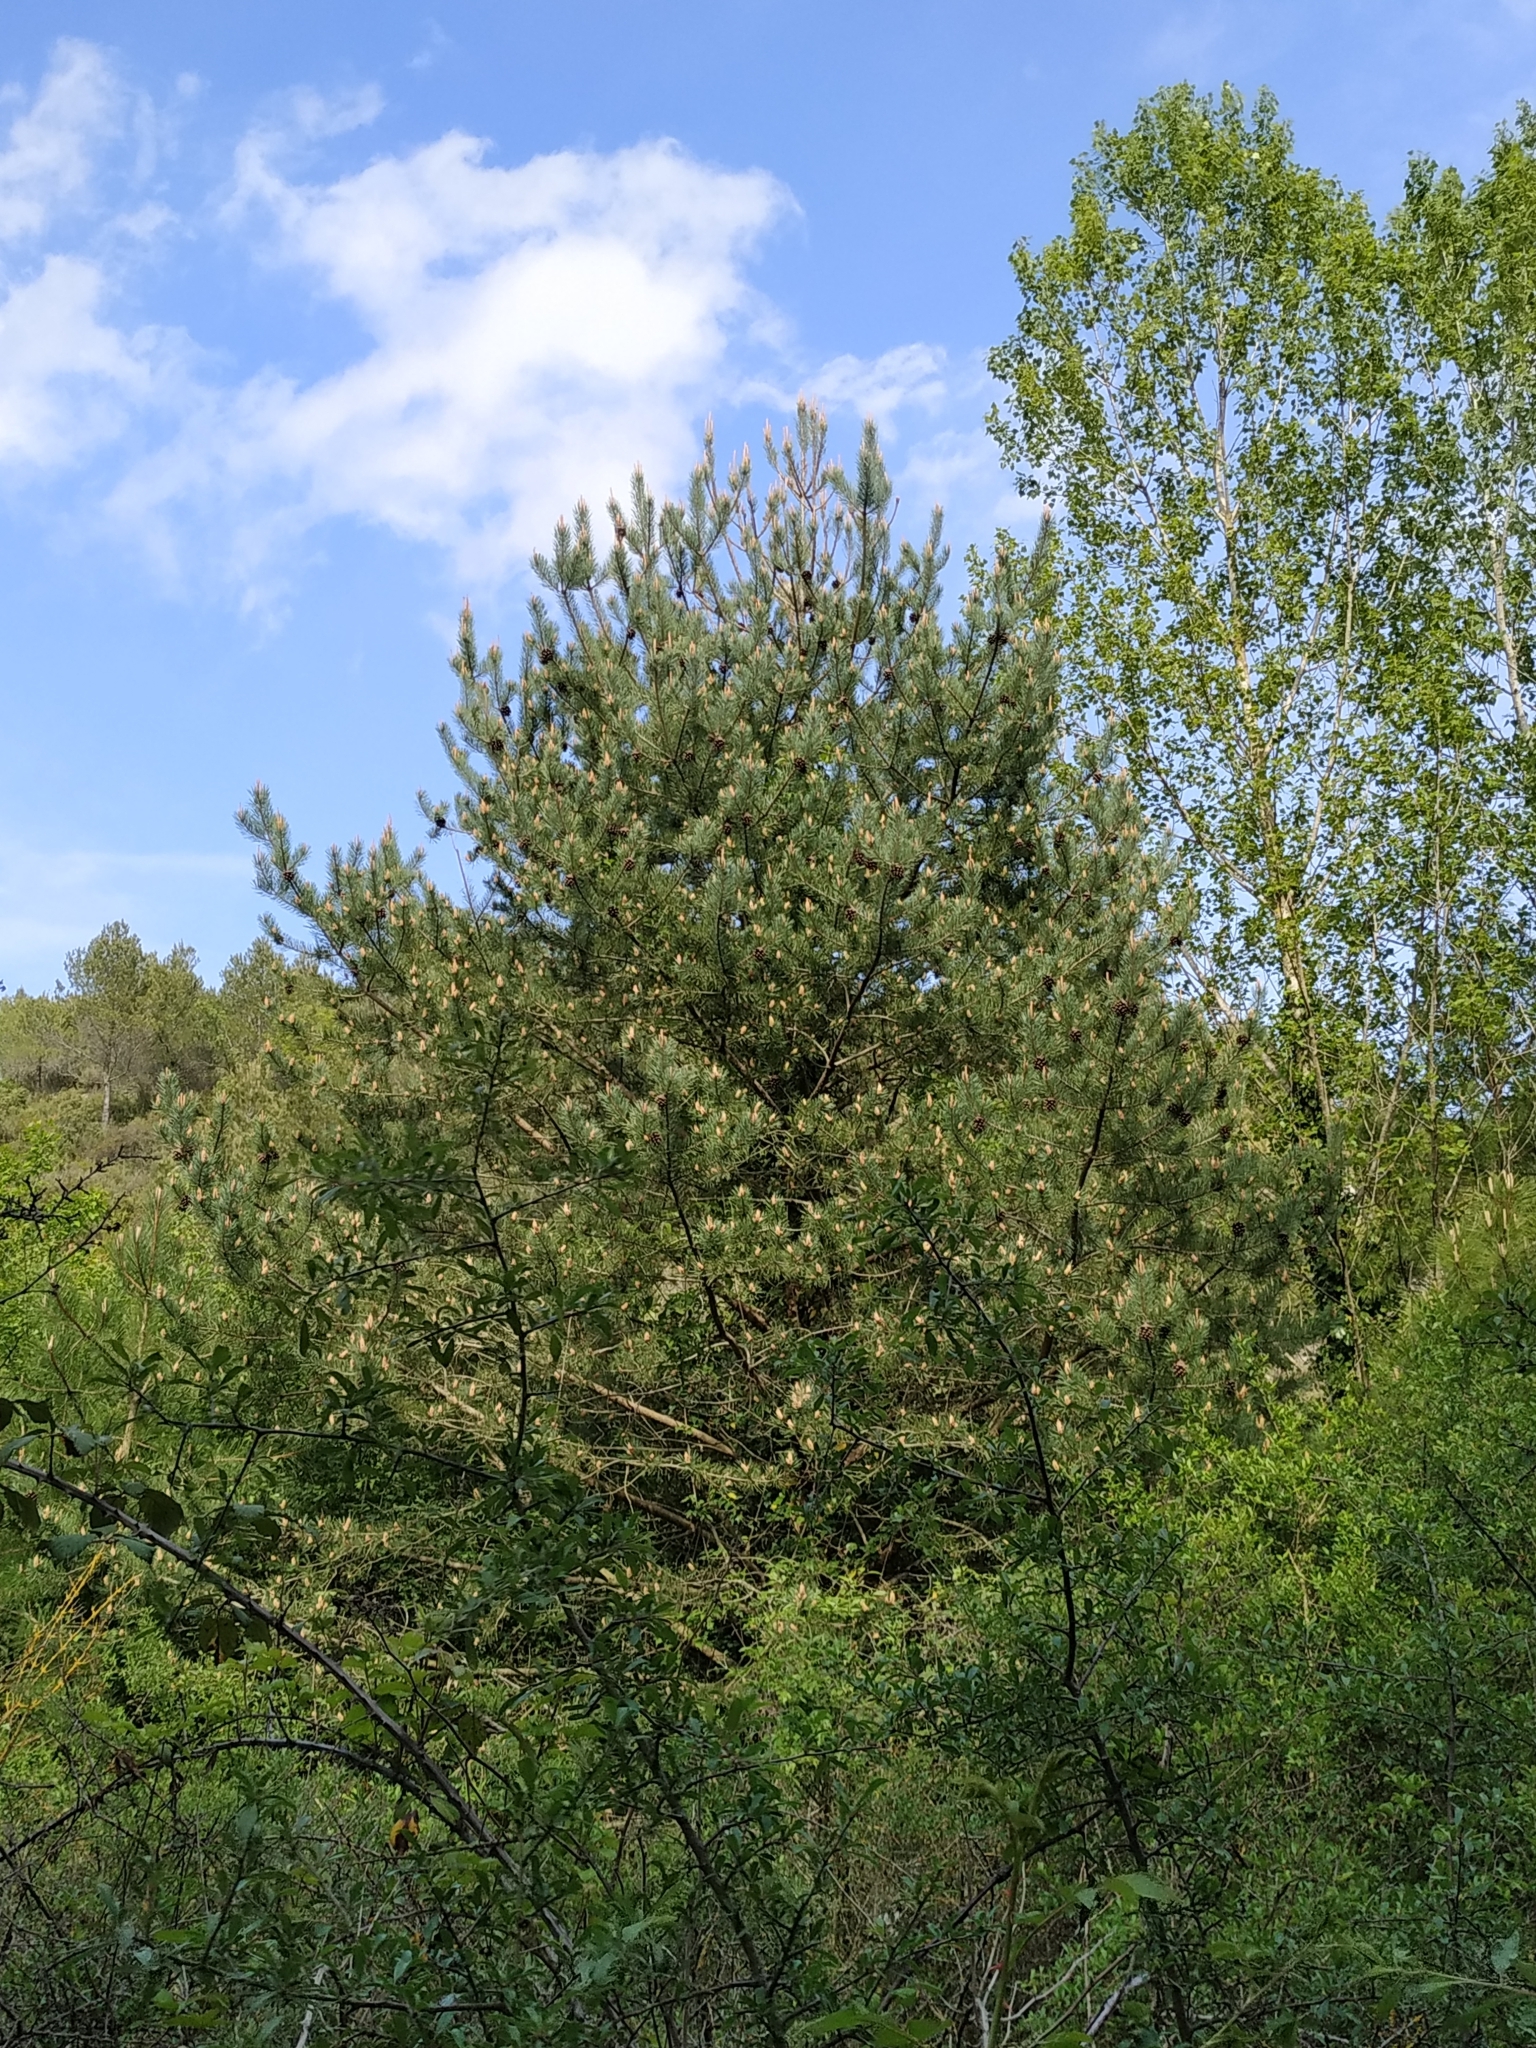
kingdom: Plantae
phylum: Tracheophyta
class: Pinopsida
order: Pinales
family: Pinaceae
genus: Pinus
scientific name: Pinus sylvestris
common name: Scots pine
